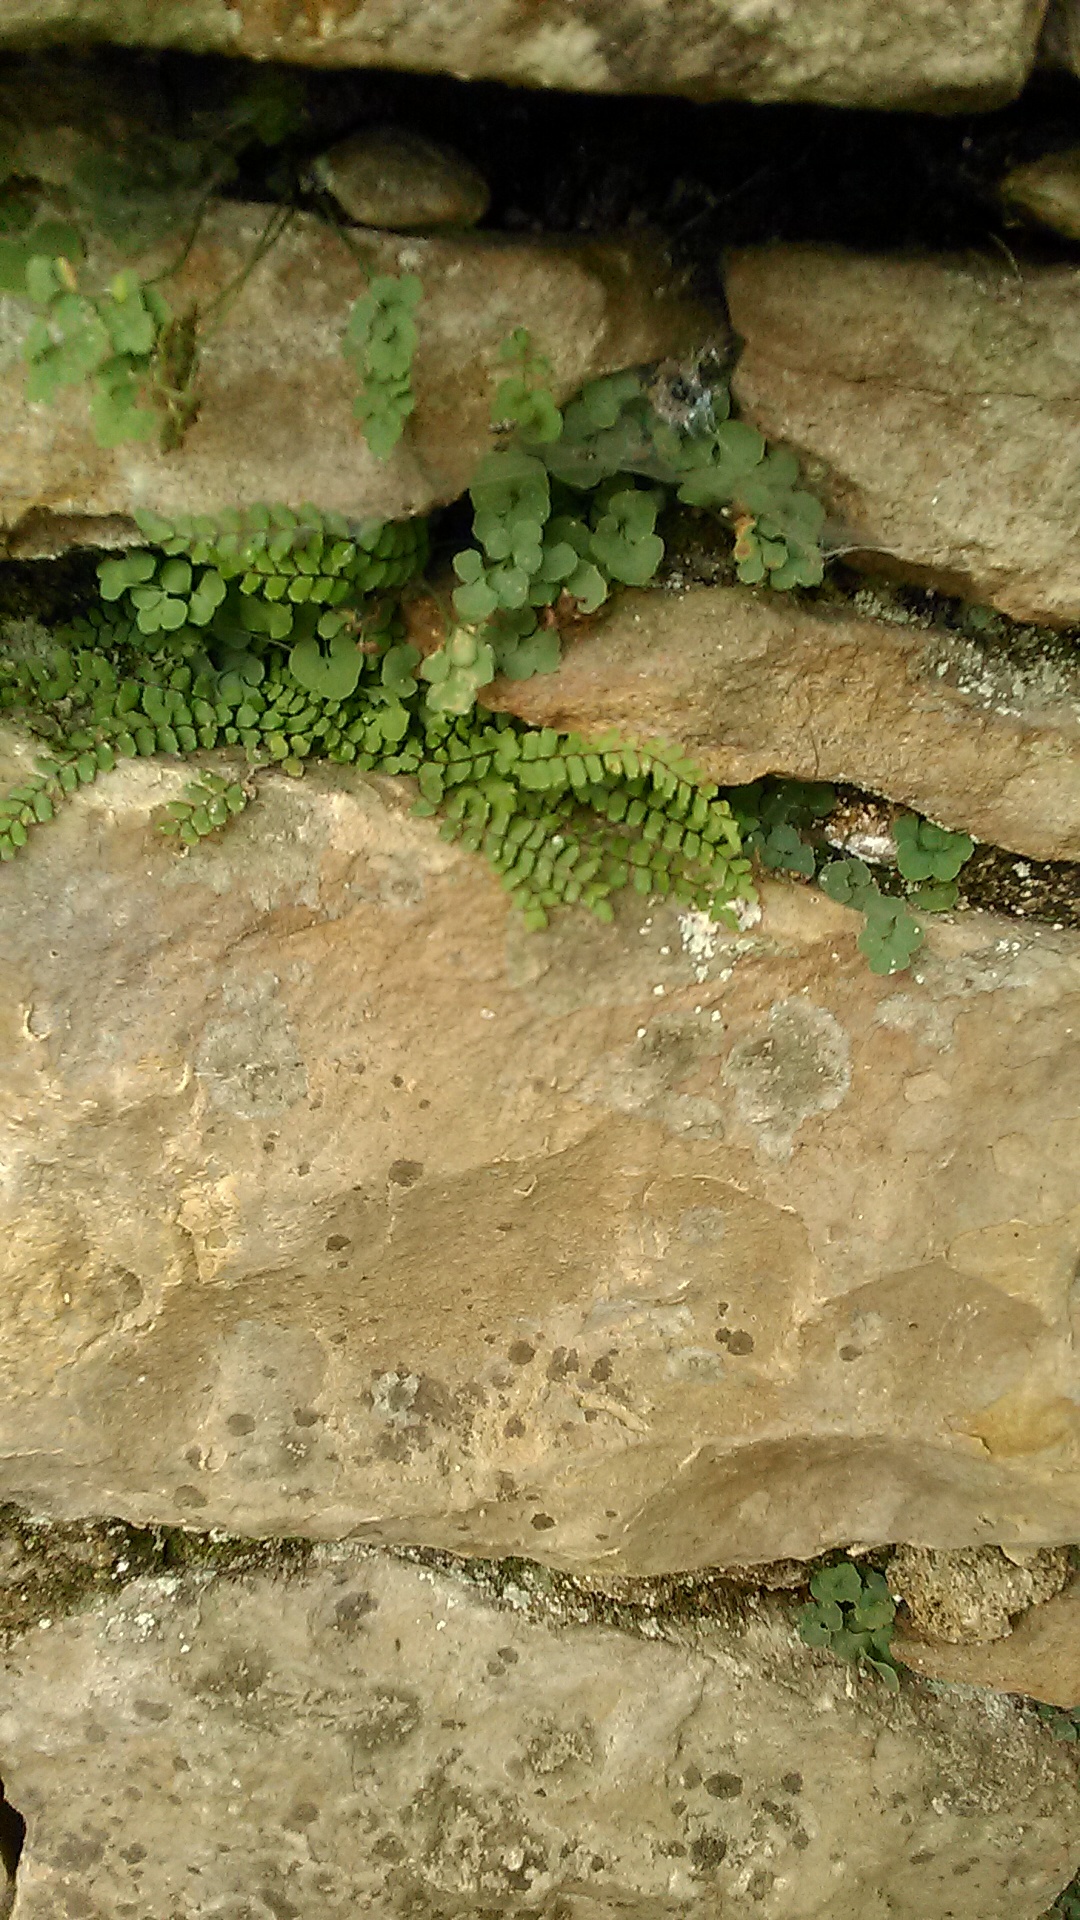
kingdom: Plantae
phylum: Tracheophyta
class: Polypodiopsida
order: Polypodiales
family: Aspleniaceae
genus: Asplenium
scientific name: Asplenium trichomanes
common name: Maidenhair spleenwort
